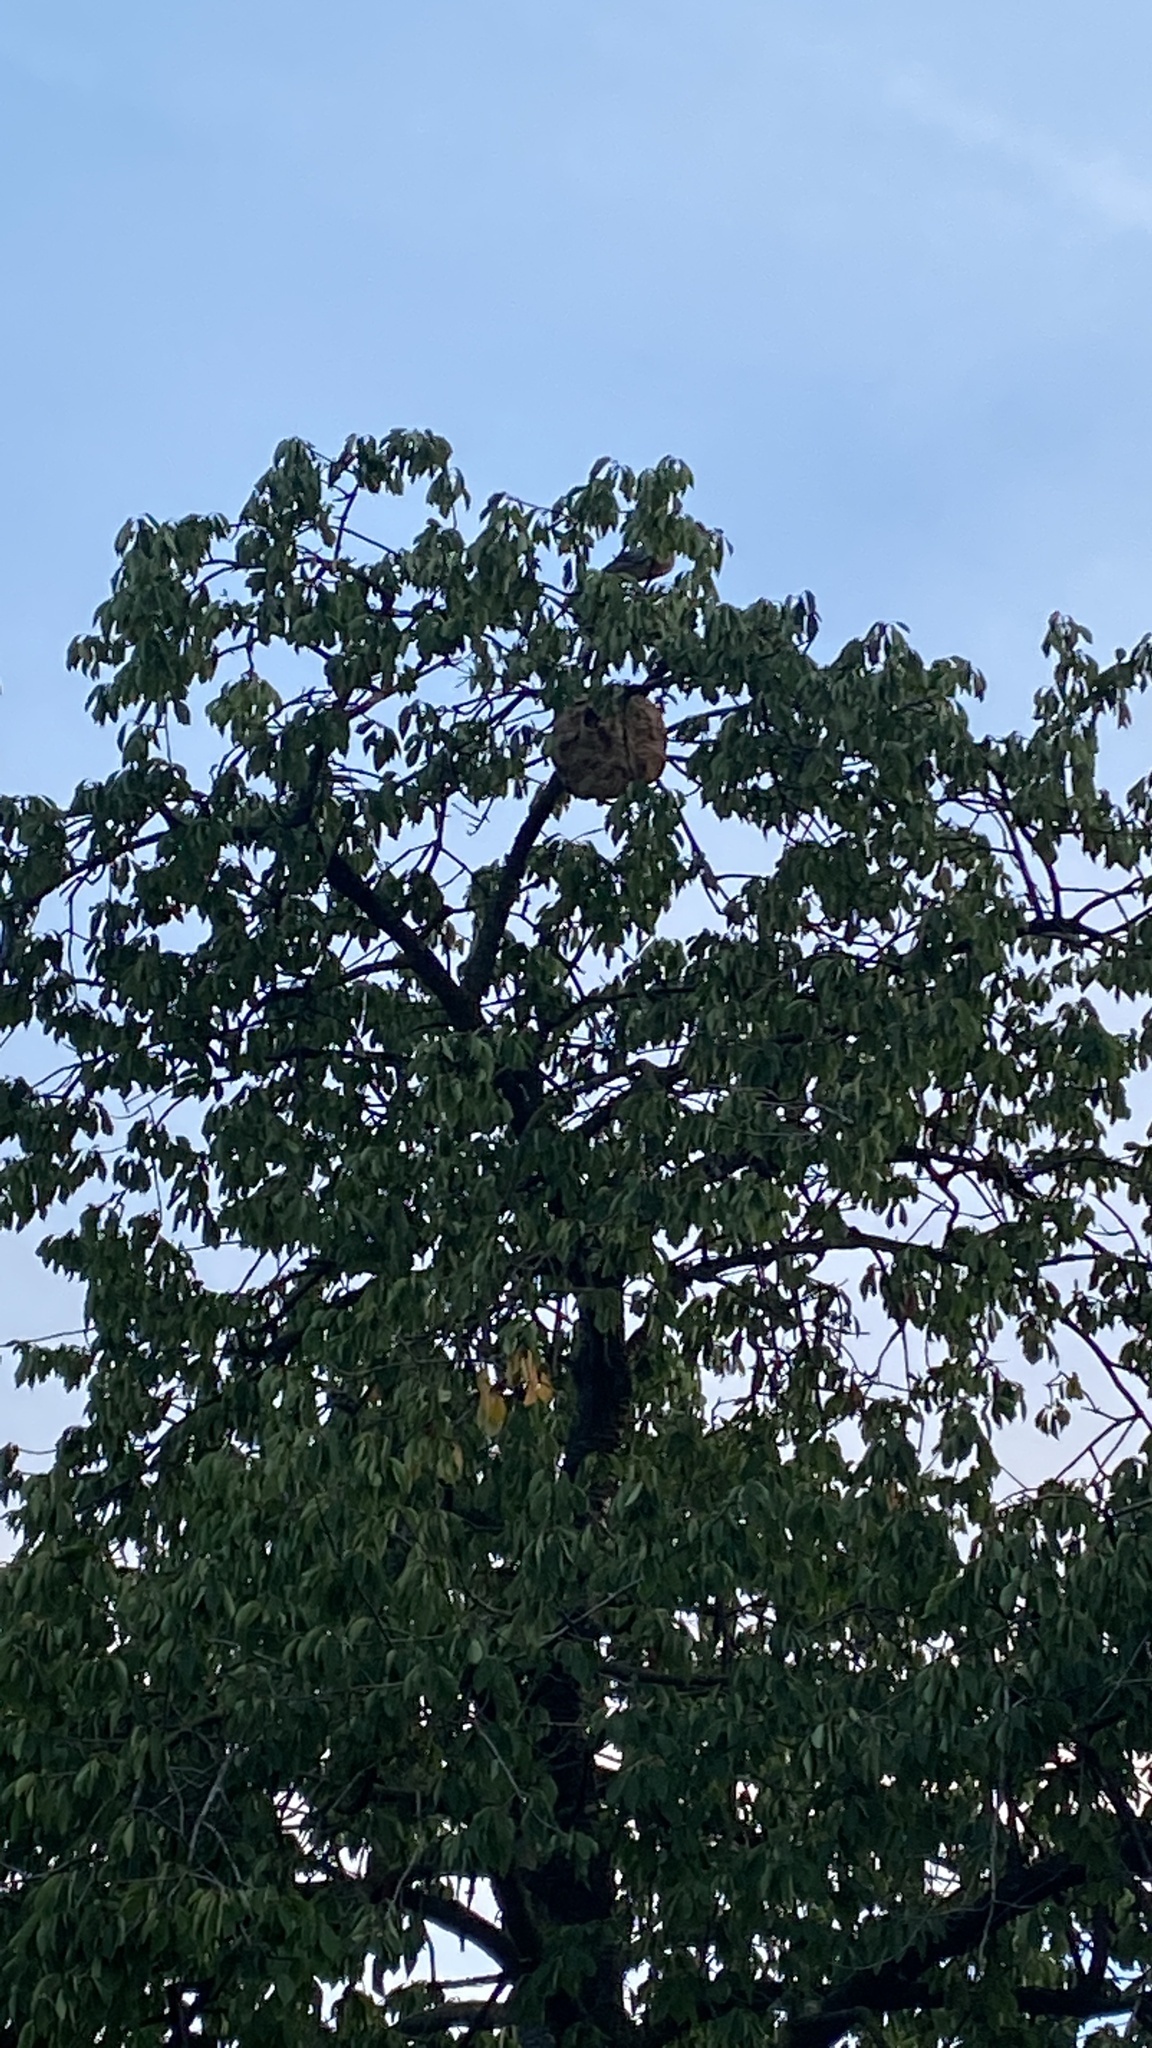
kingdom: Animalia
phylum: Arthropoda
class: Insecta
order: Hymenoptera
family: Vespidae
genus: Vespa
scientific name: Vespa velutina
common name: Asian hornet
